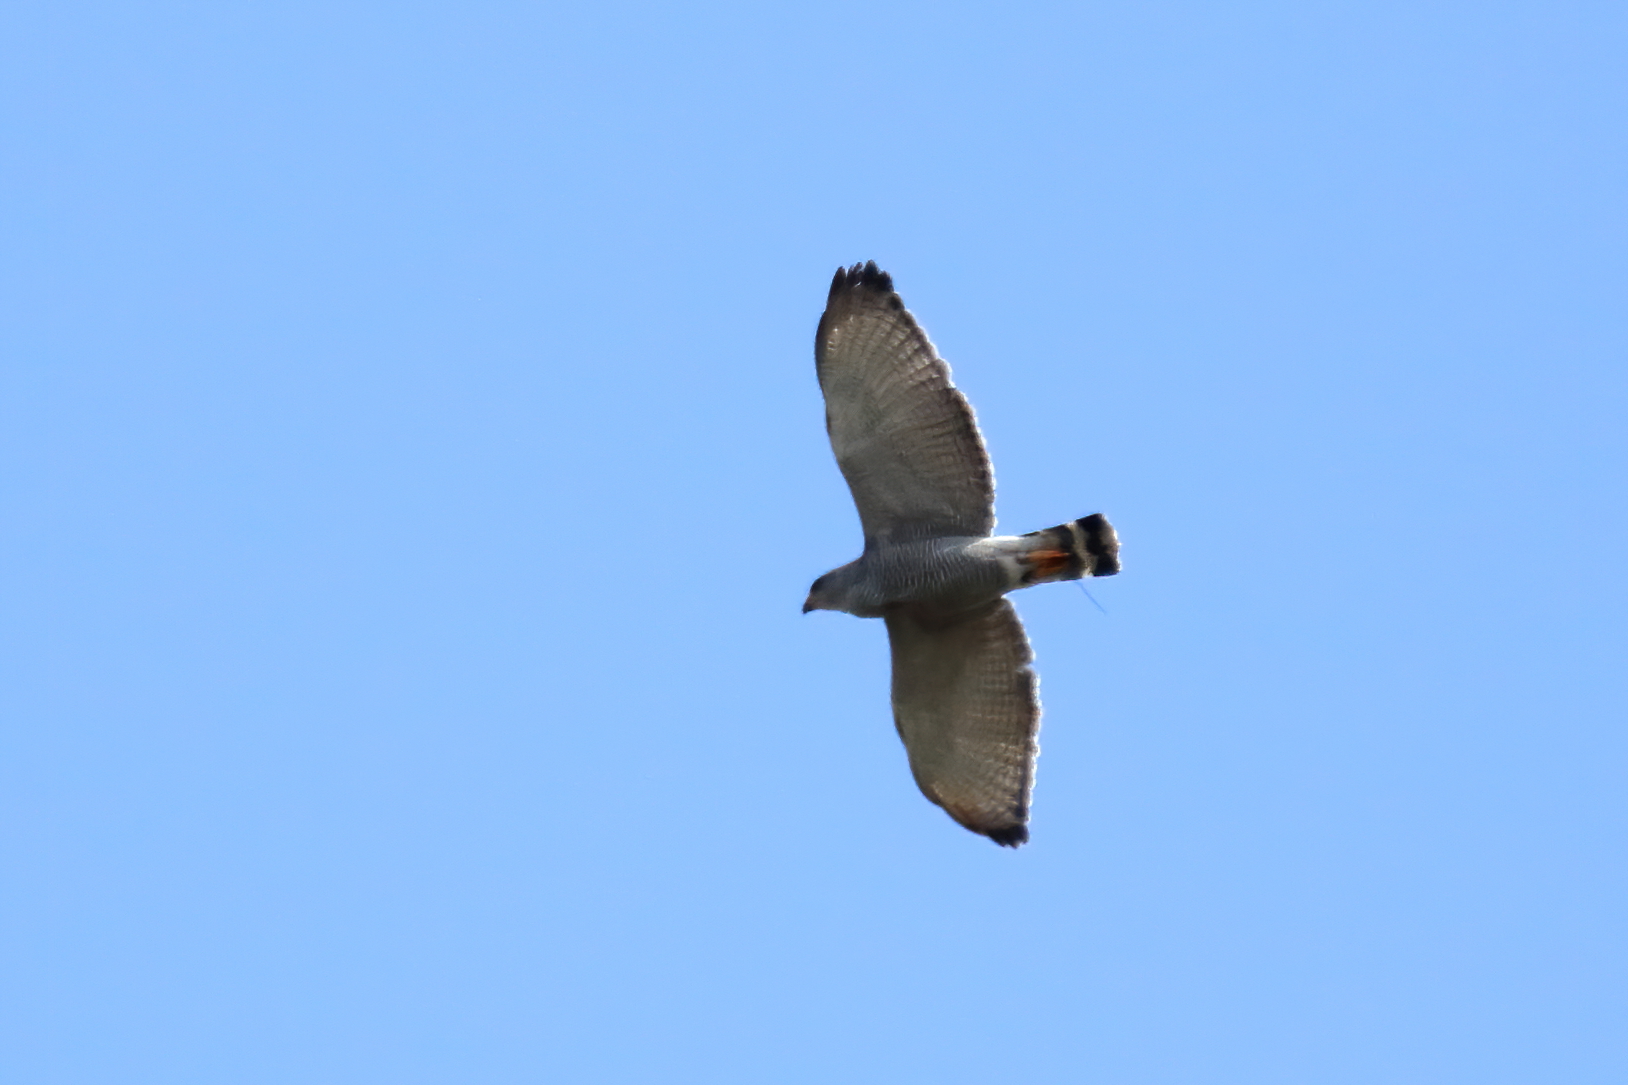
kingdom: Animalia
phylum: Chordata
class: Aves
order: Accipitriformes
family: Accipitridae
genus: Buteo
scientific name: Buteo nitidus
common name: Grey-lined hawk
